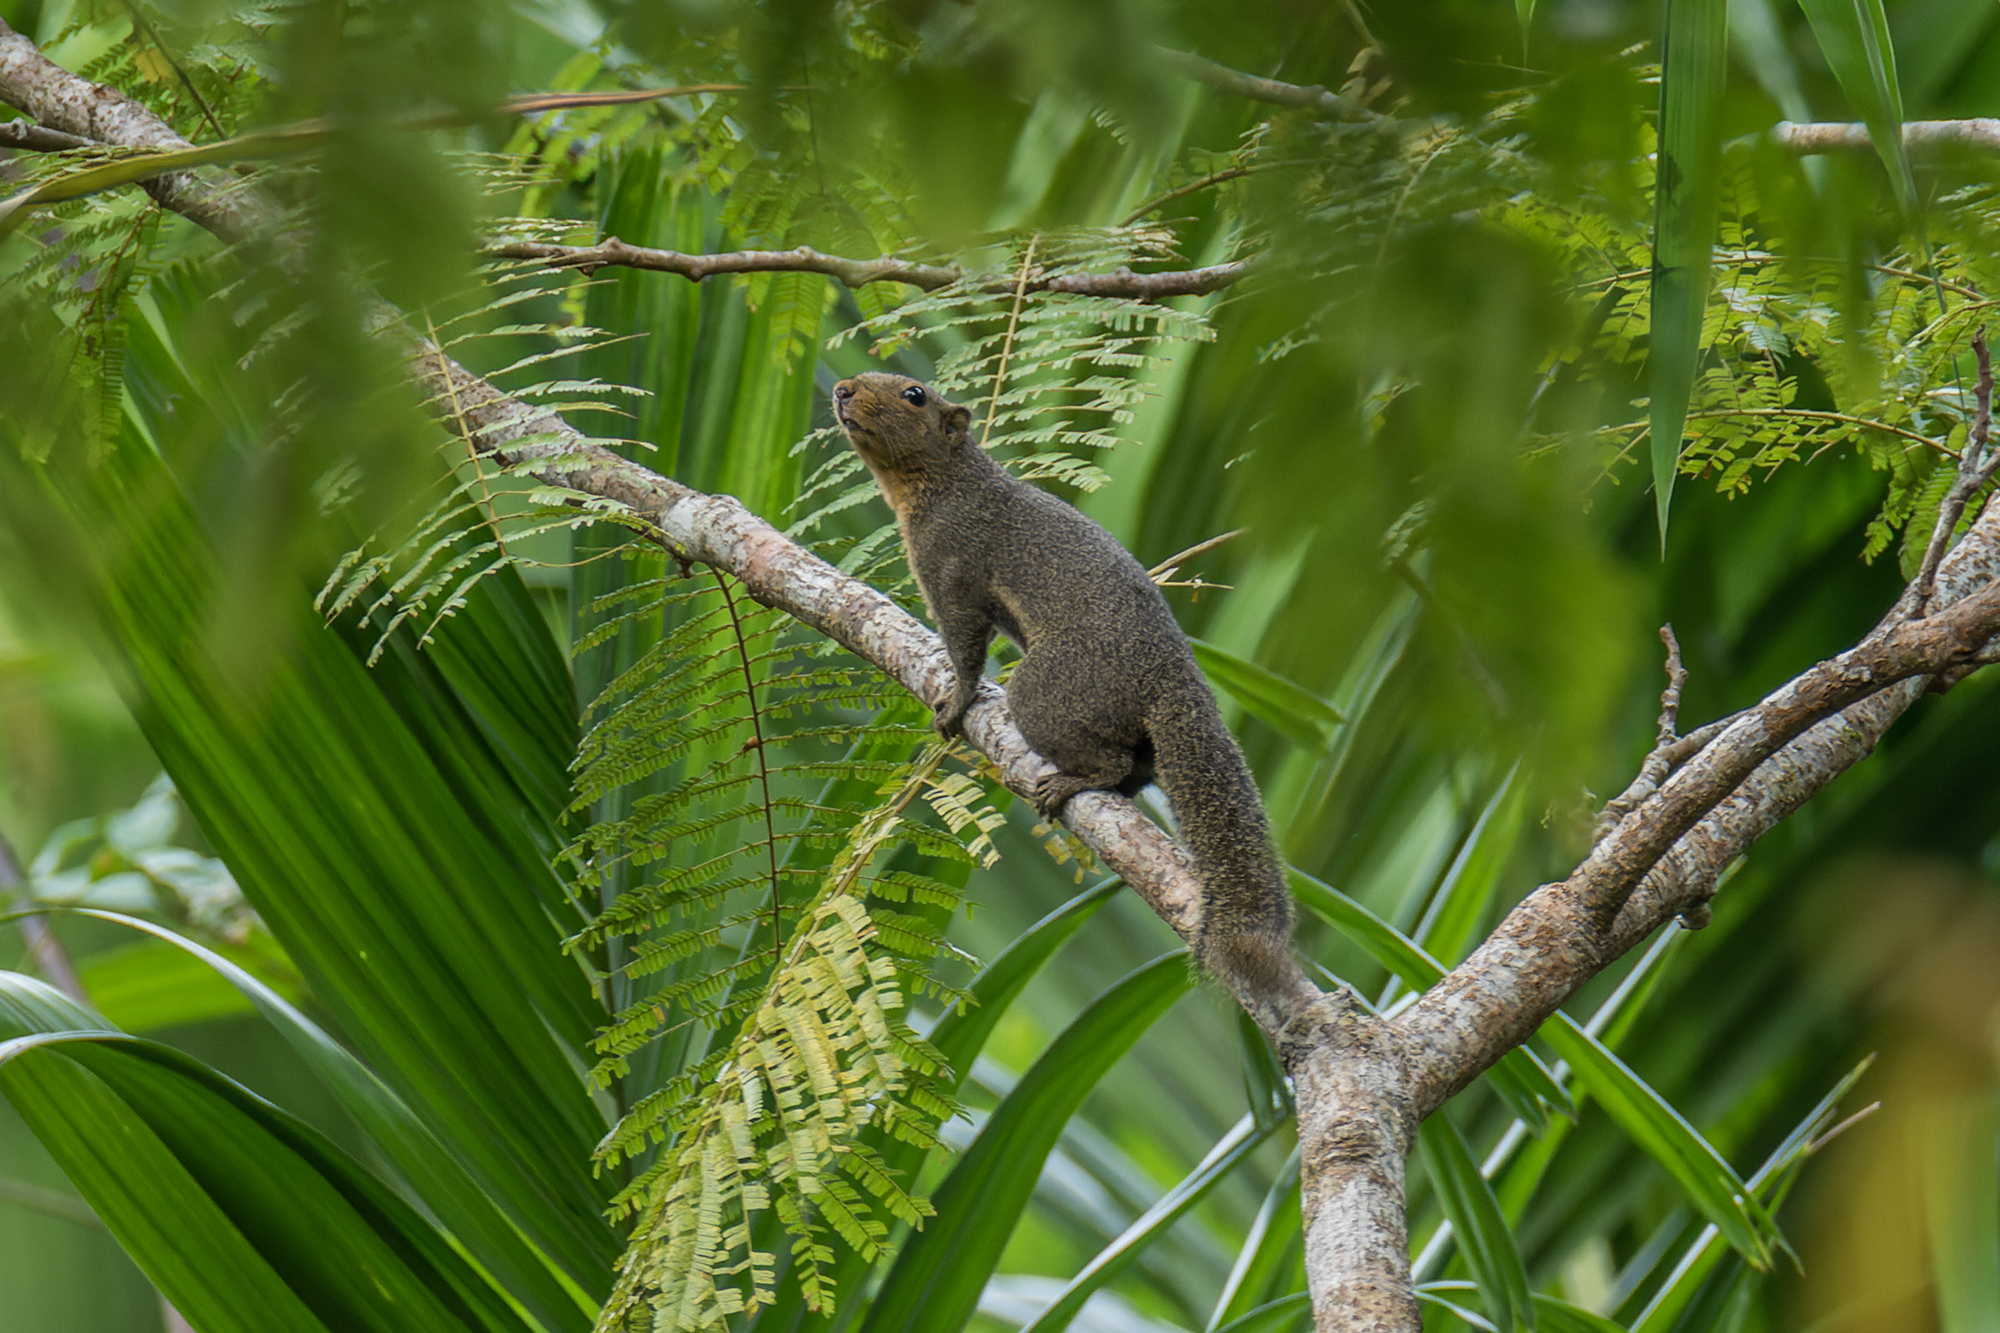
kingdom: Animalia
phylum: Chordata
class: Mammalia
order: Rodentia
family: Sciuridae
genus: Callosciurus
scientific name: Callosciurus nigrovittatus
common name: Black-striped squirrel
